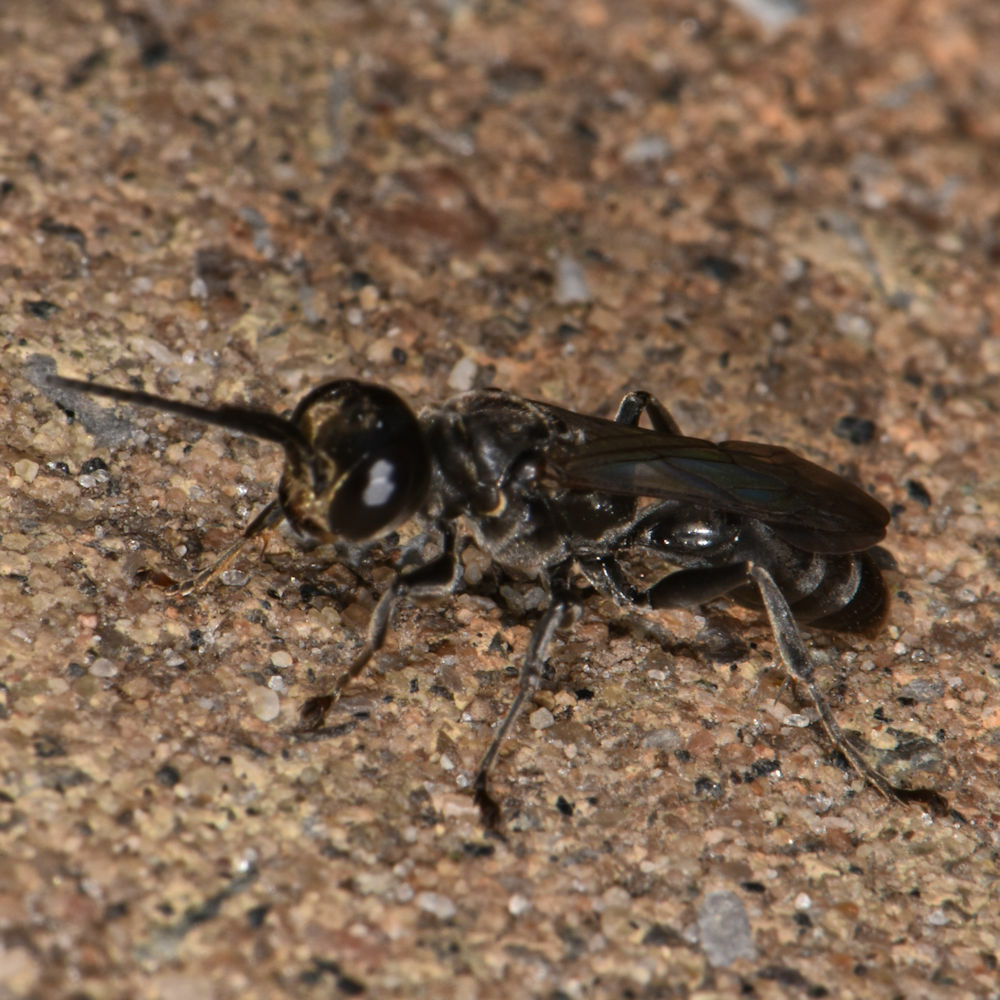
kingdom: Animalia
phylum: Arthropoda
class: Insecta
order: Hymenoptera
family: Crabronidae
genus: Lyroda
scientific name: Lyroda subita
